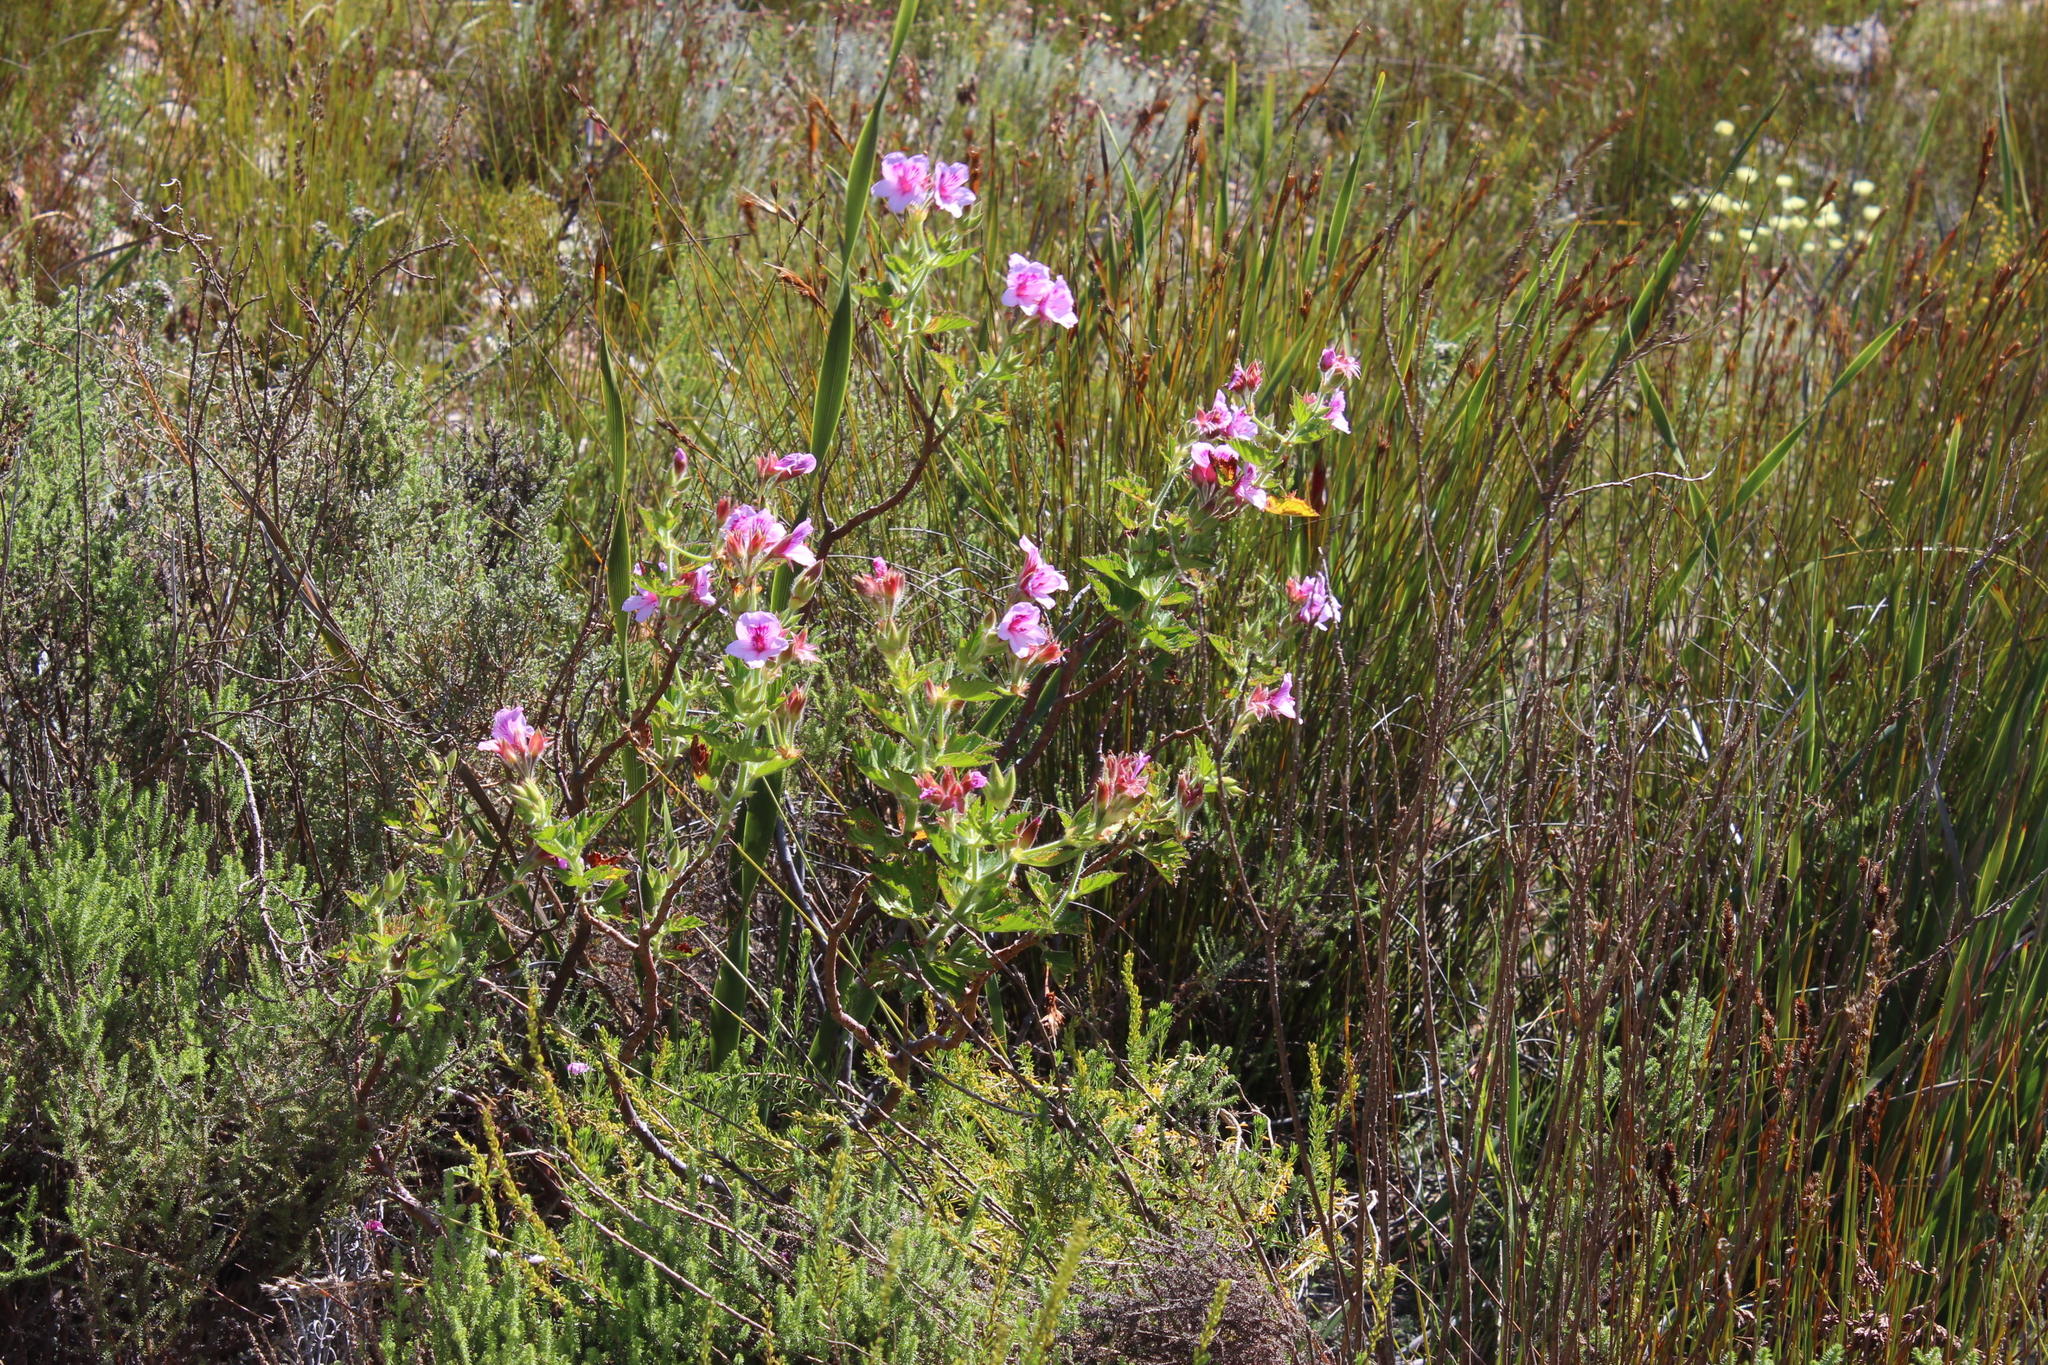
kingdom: Plantae
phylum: Tracheophyta
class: Magnoliopsida
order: Geraniales
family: Geraniaceae
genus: Pelargonium
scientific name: Pelargonium cucullatum
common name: Tree pelargonium
